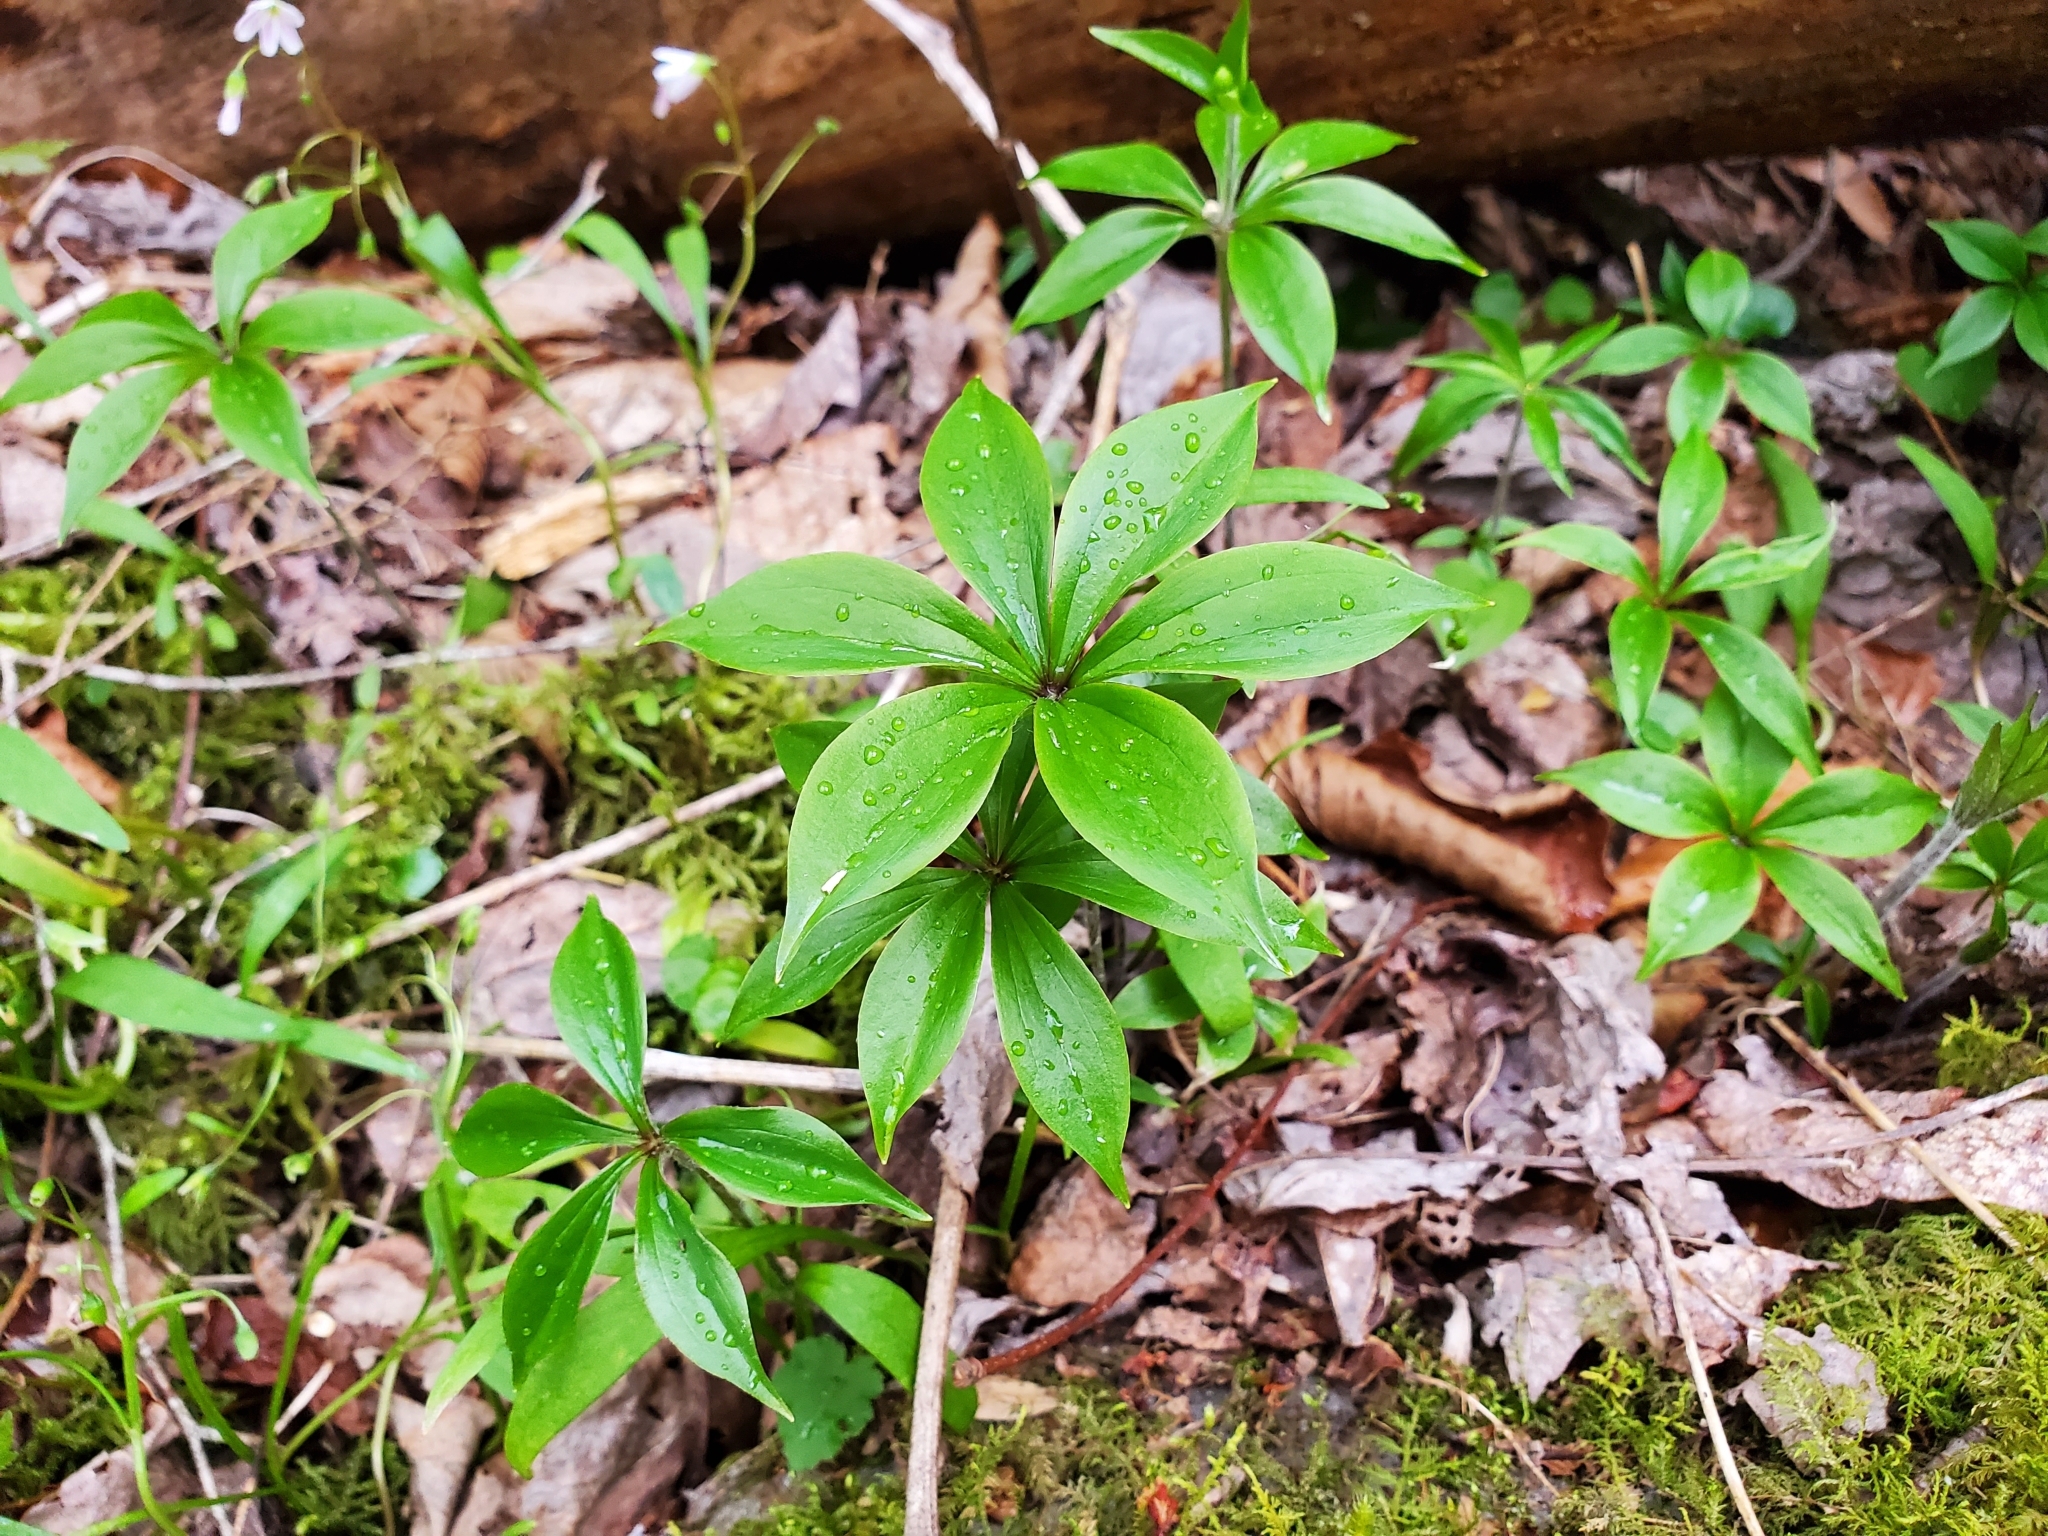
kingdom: Plantae
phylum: Tracheophyta
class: Liliopsida
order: Liliales
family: Liliaceae
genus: Medeola
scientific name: Medeola virginiana
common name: Indian cucumber-root
